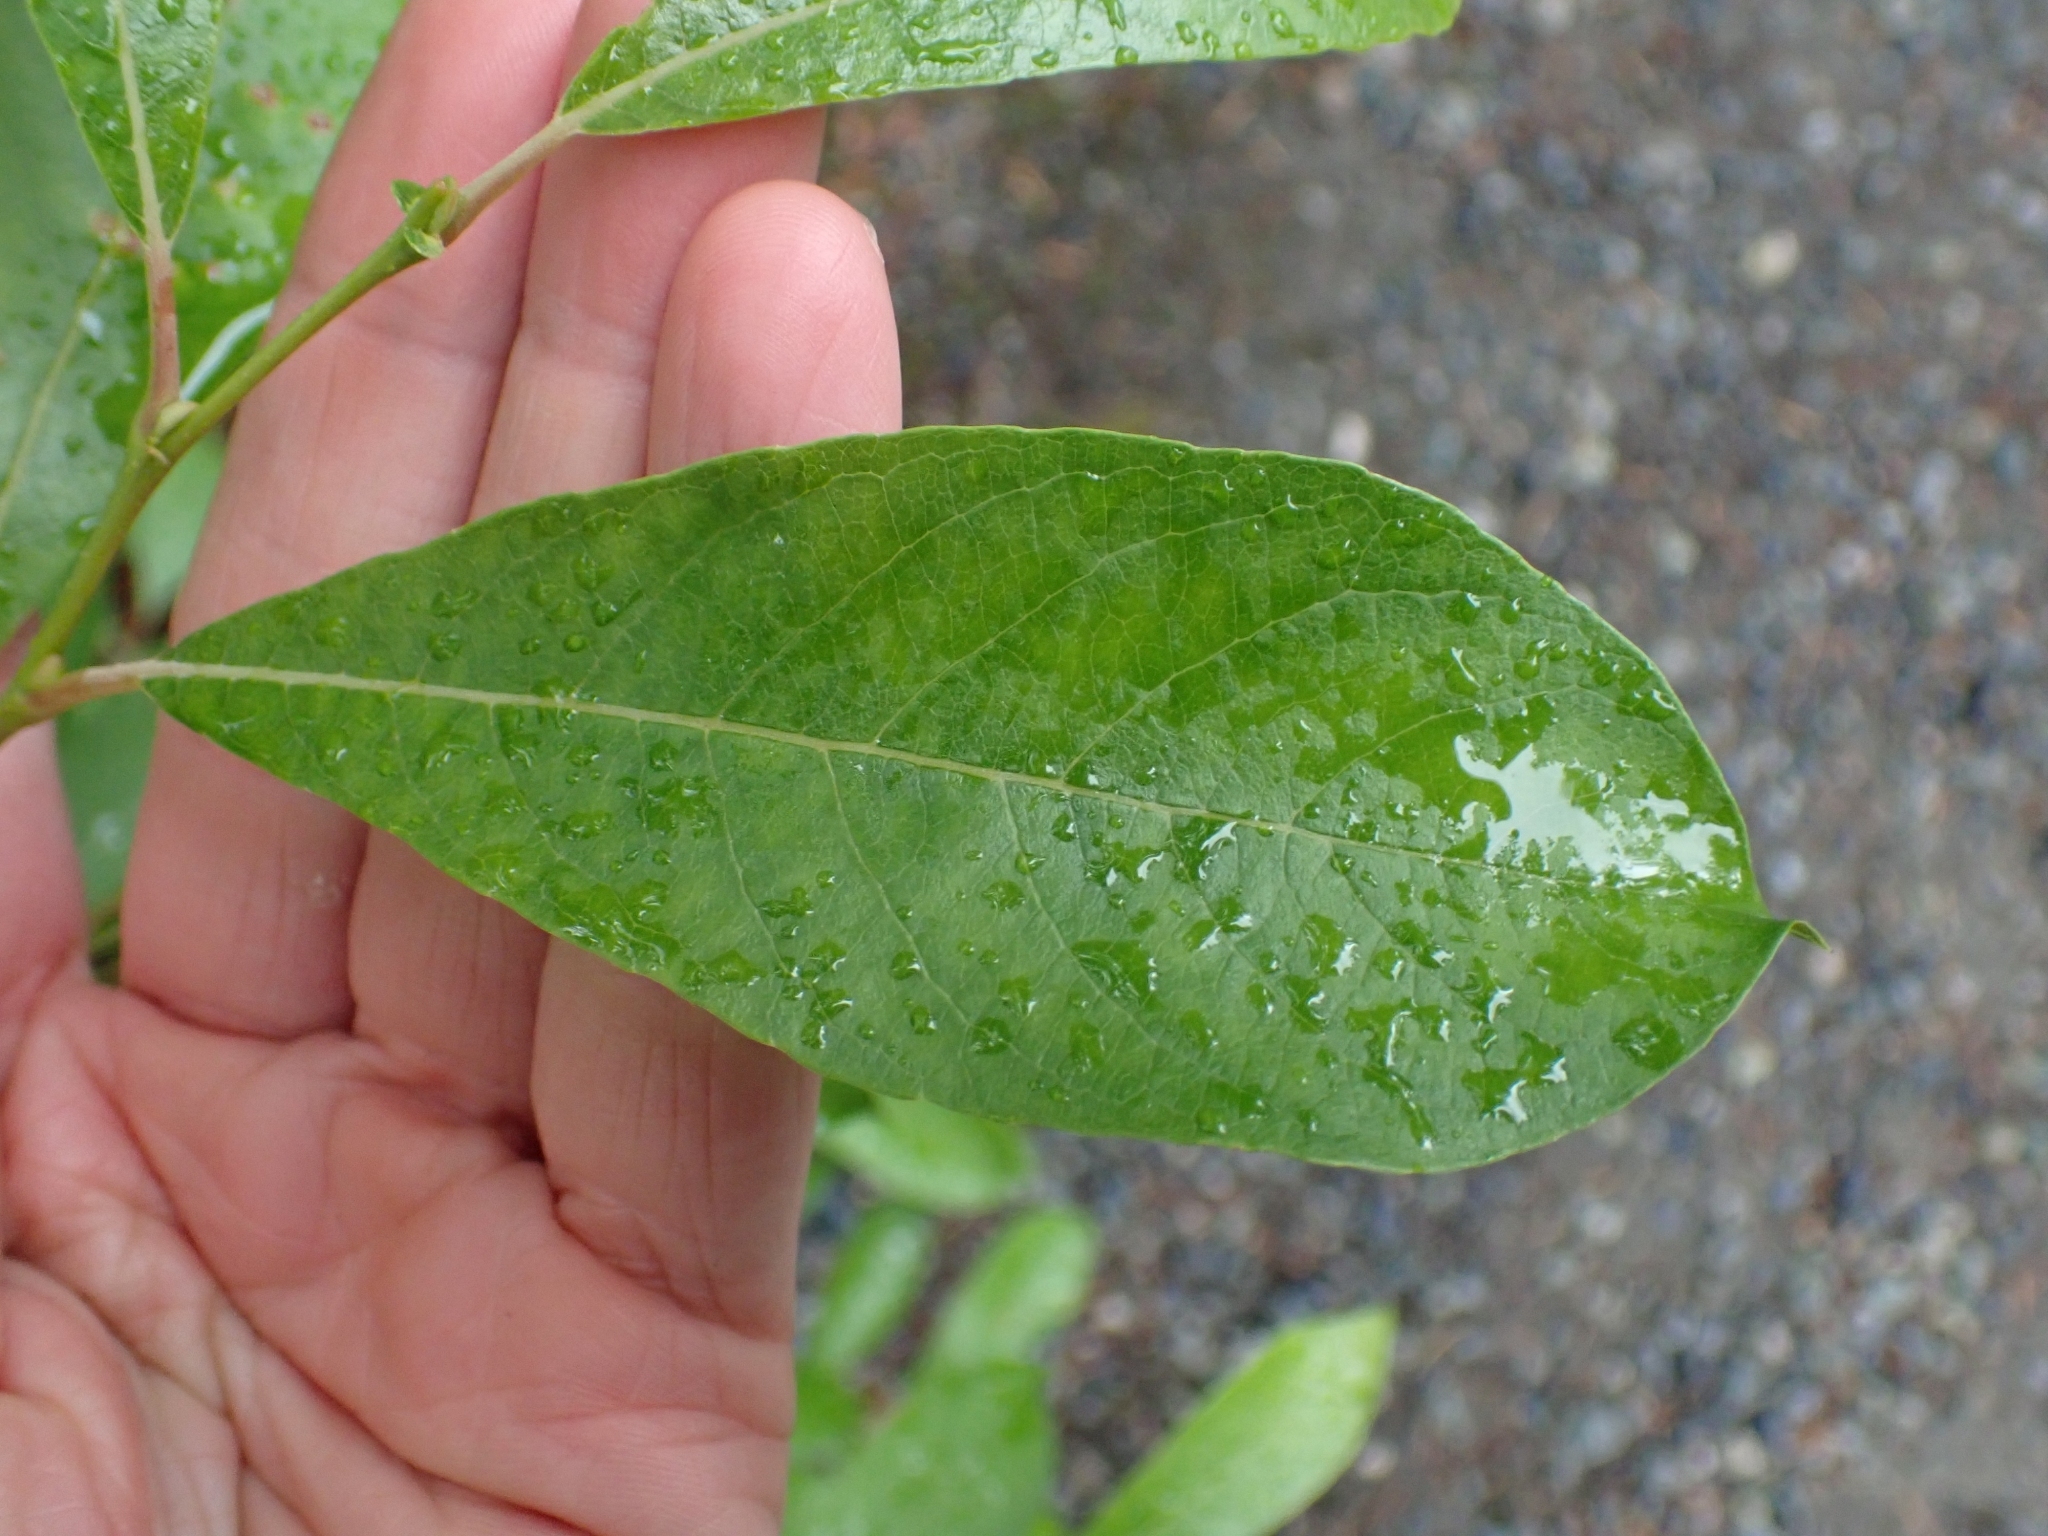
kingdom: Plantae
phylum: Tracheophyta
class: Magnoliopsida
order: Malpighiales
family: Salicaceae
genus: Salix
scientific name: Salix scouleriana
